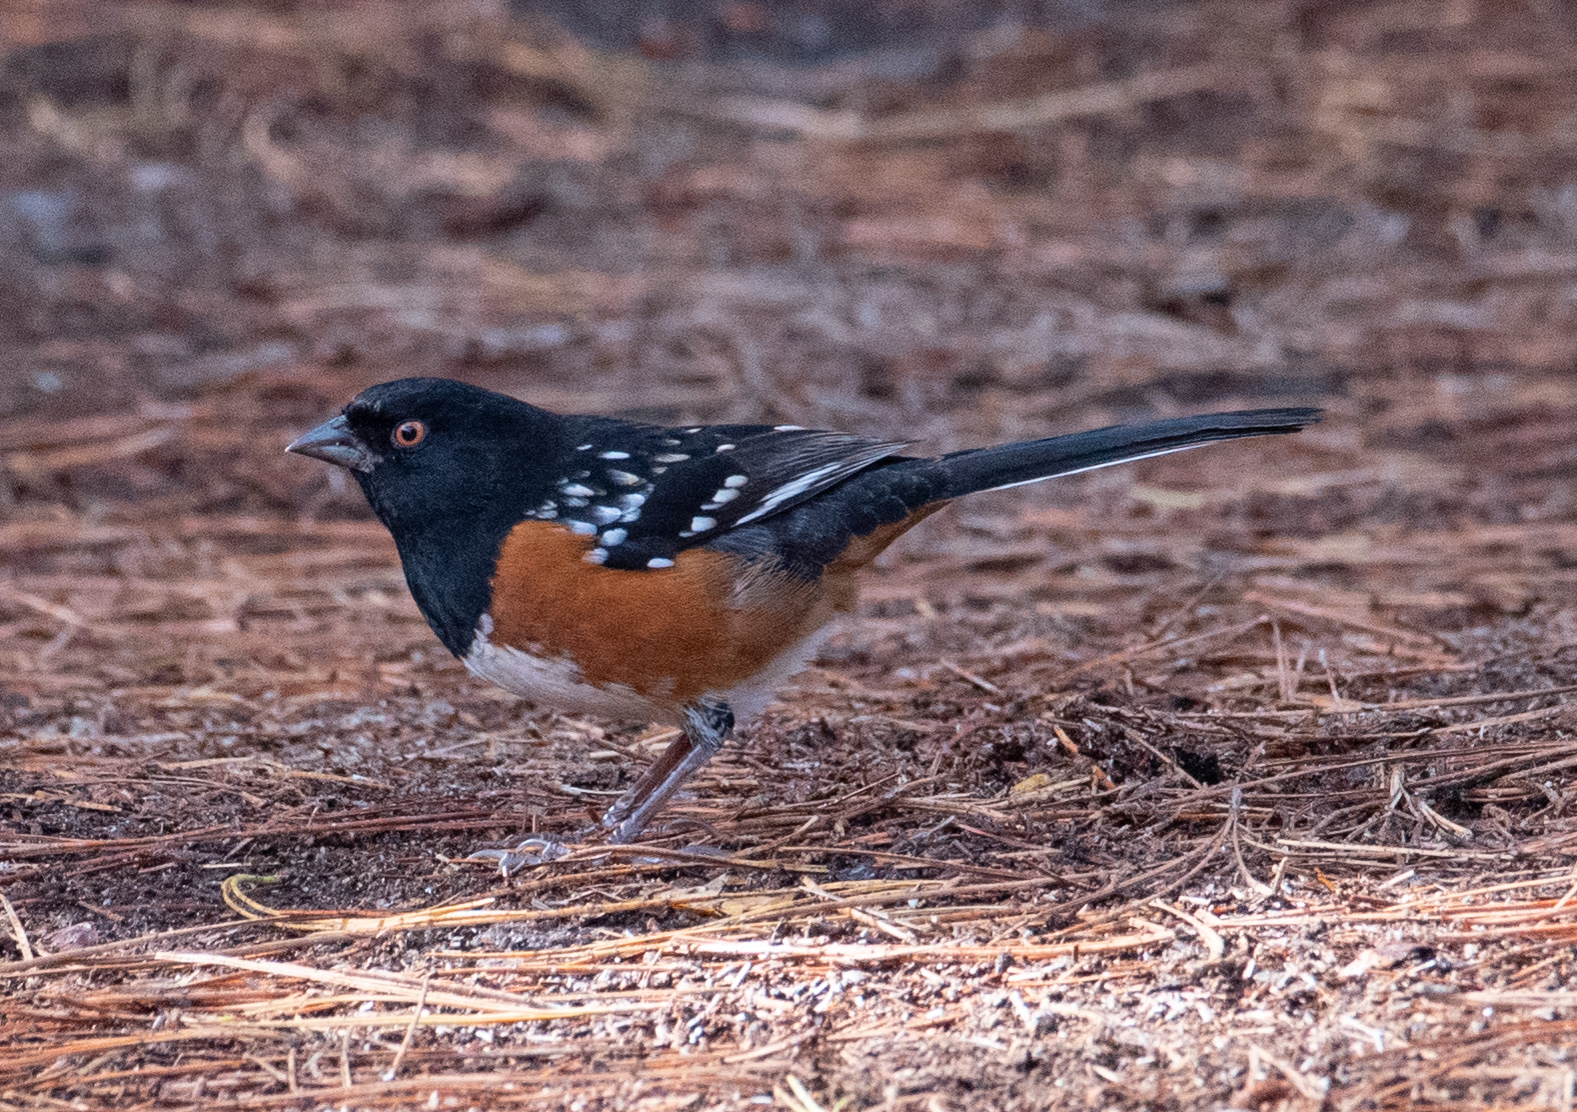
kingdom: Animalia
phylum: Chordata
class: Aves
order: Passeriformes
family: Passerellidae
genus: Pipilo
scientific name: Pipilo maculatus
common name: Spotted towhee
